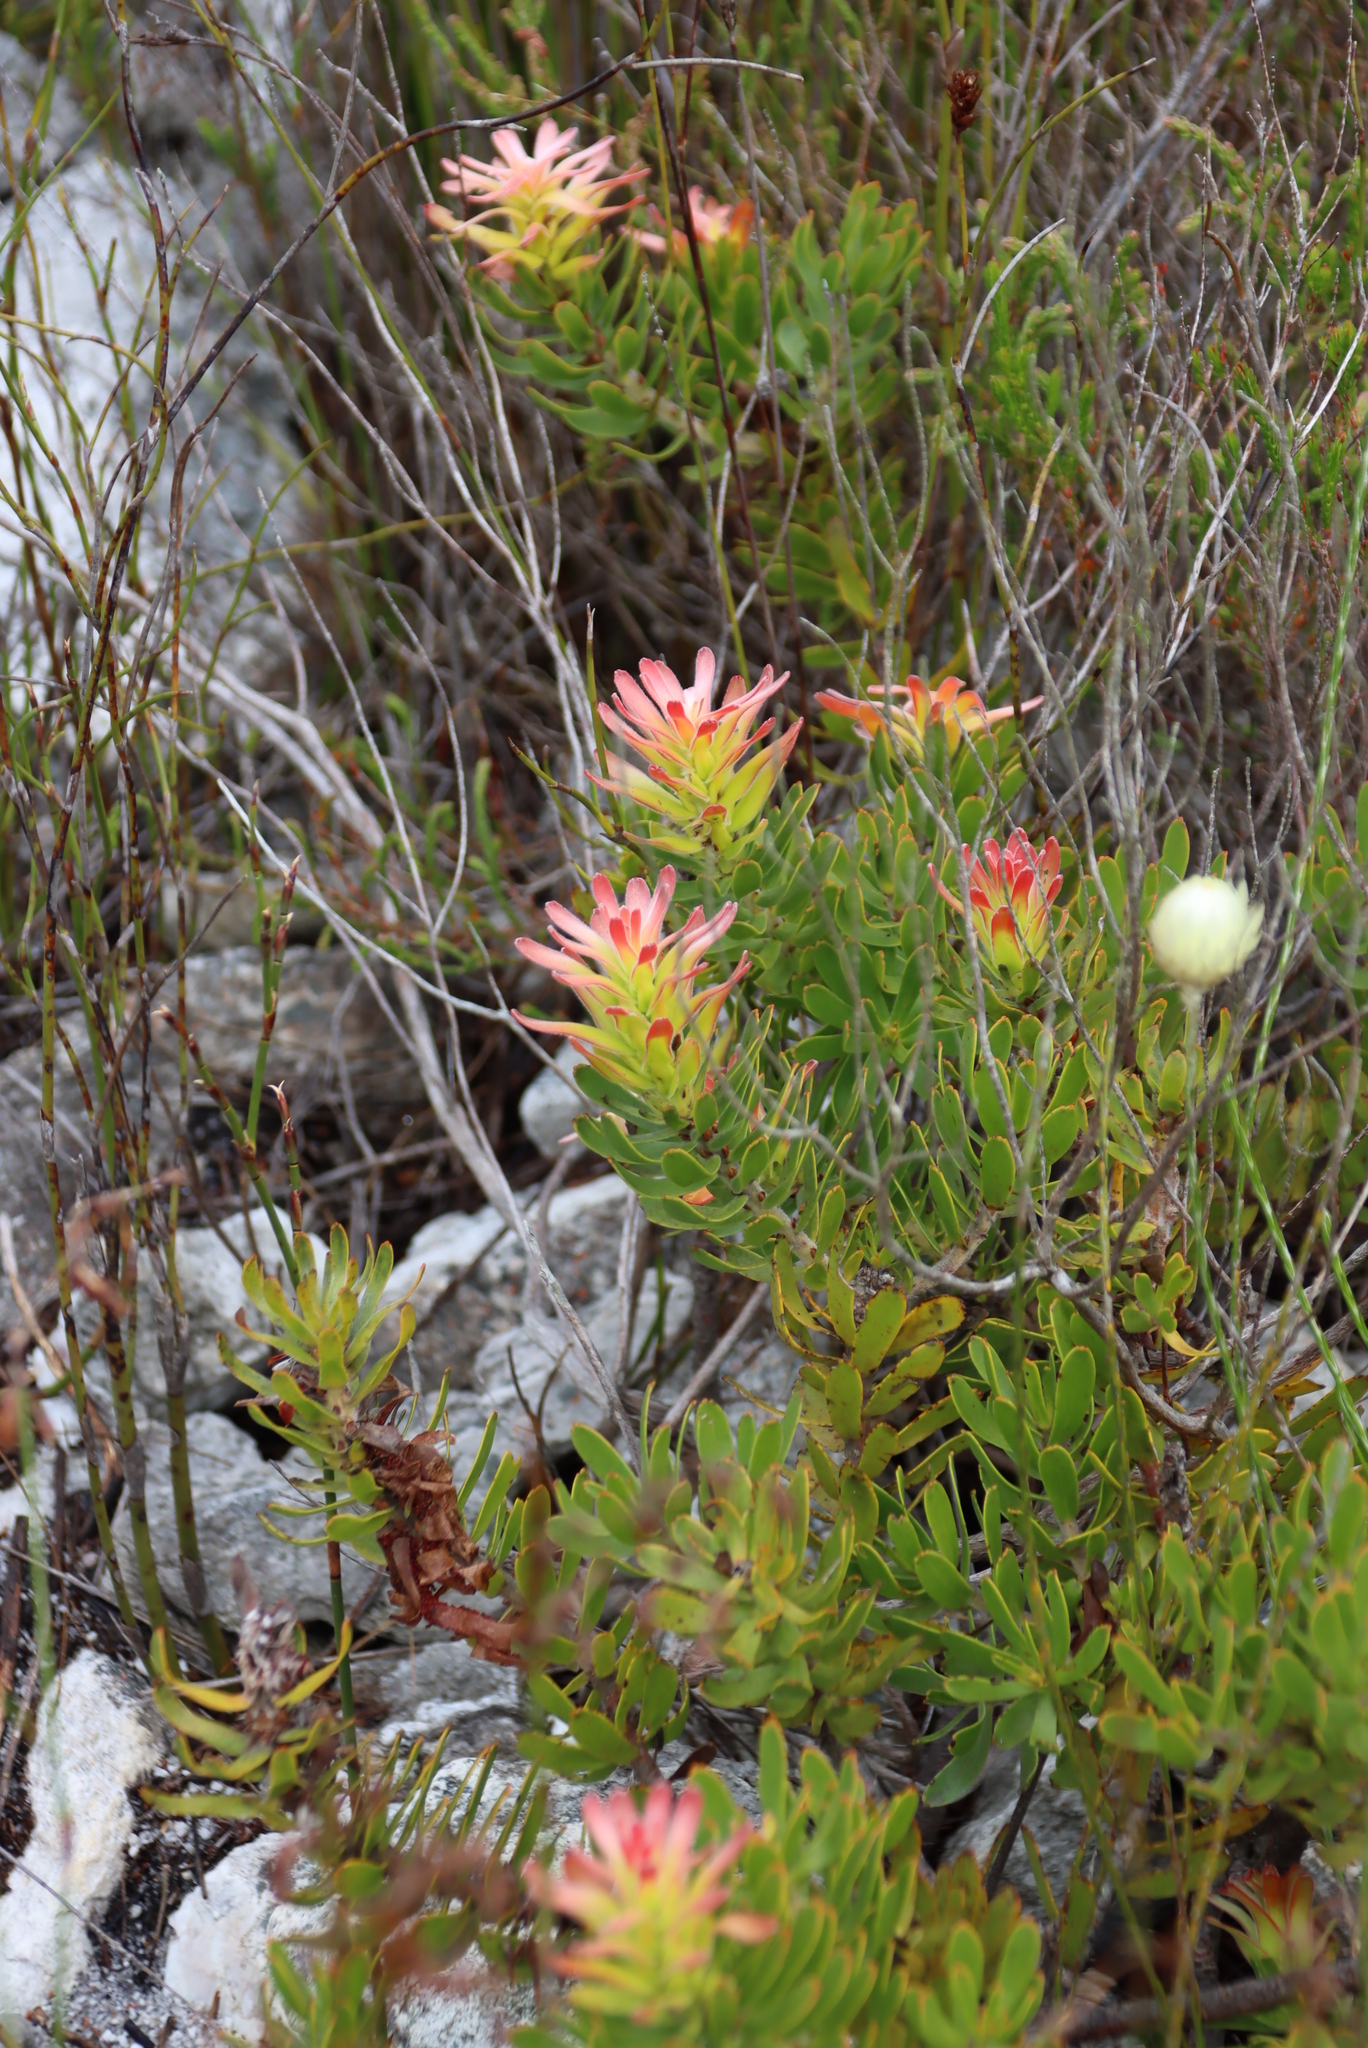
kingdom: Plantae
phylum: Tracheophyta
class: Magnoliopsida
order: Proteales
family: Proteaceae
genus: Mimetes
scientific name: Mimetes cucullatus
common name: Common pagoda
